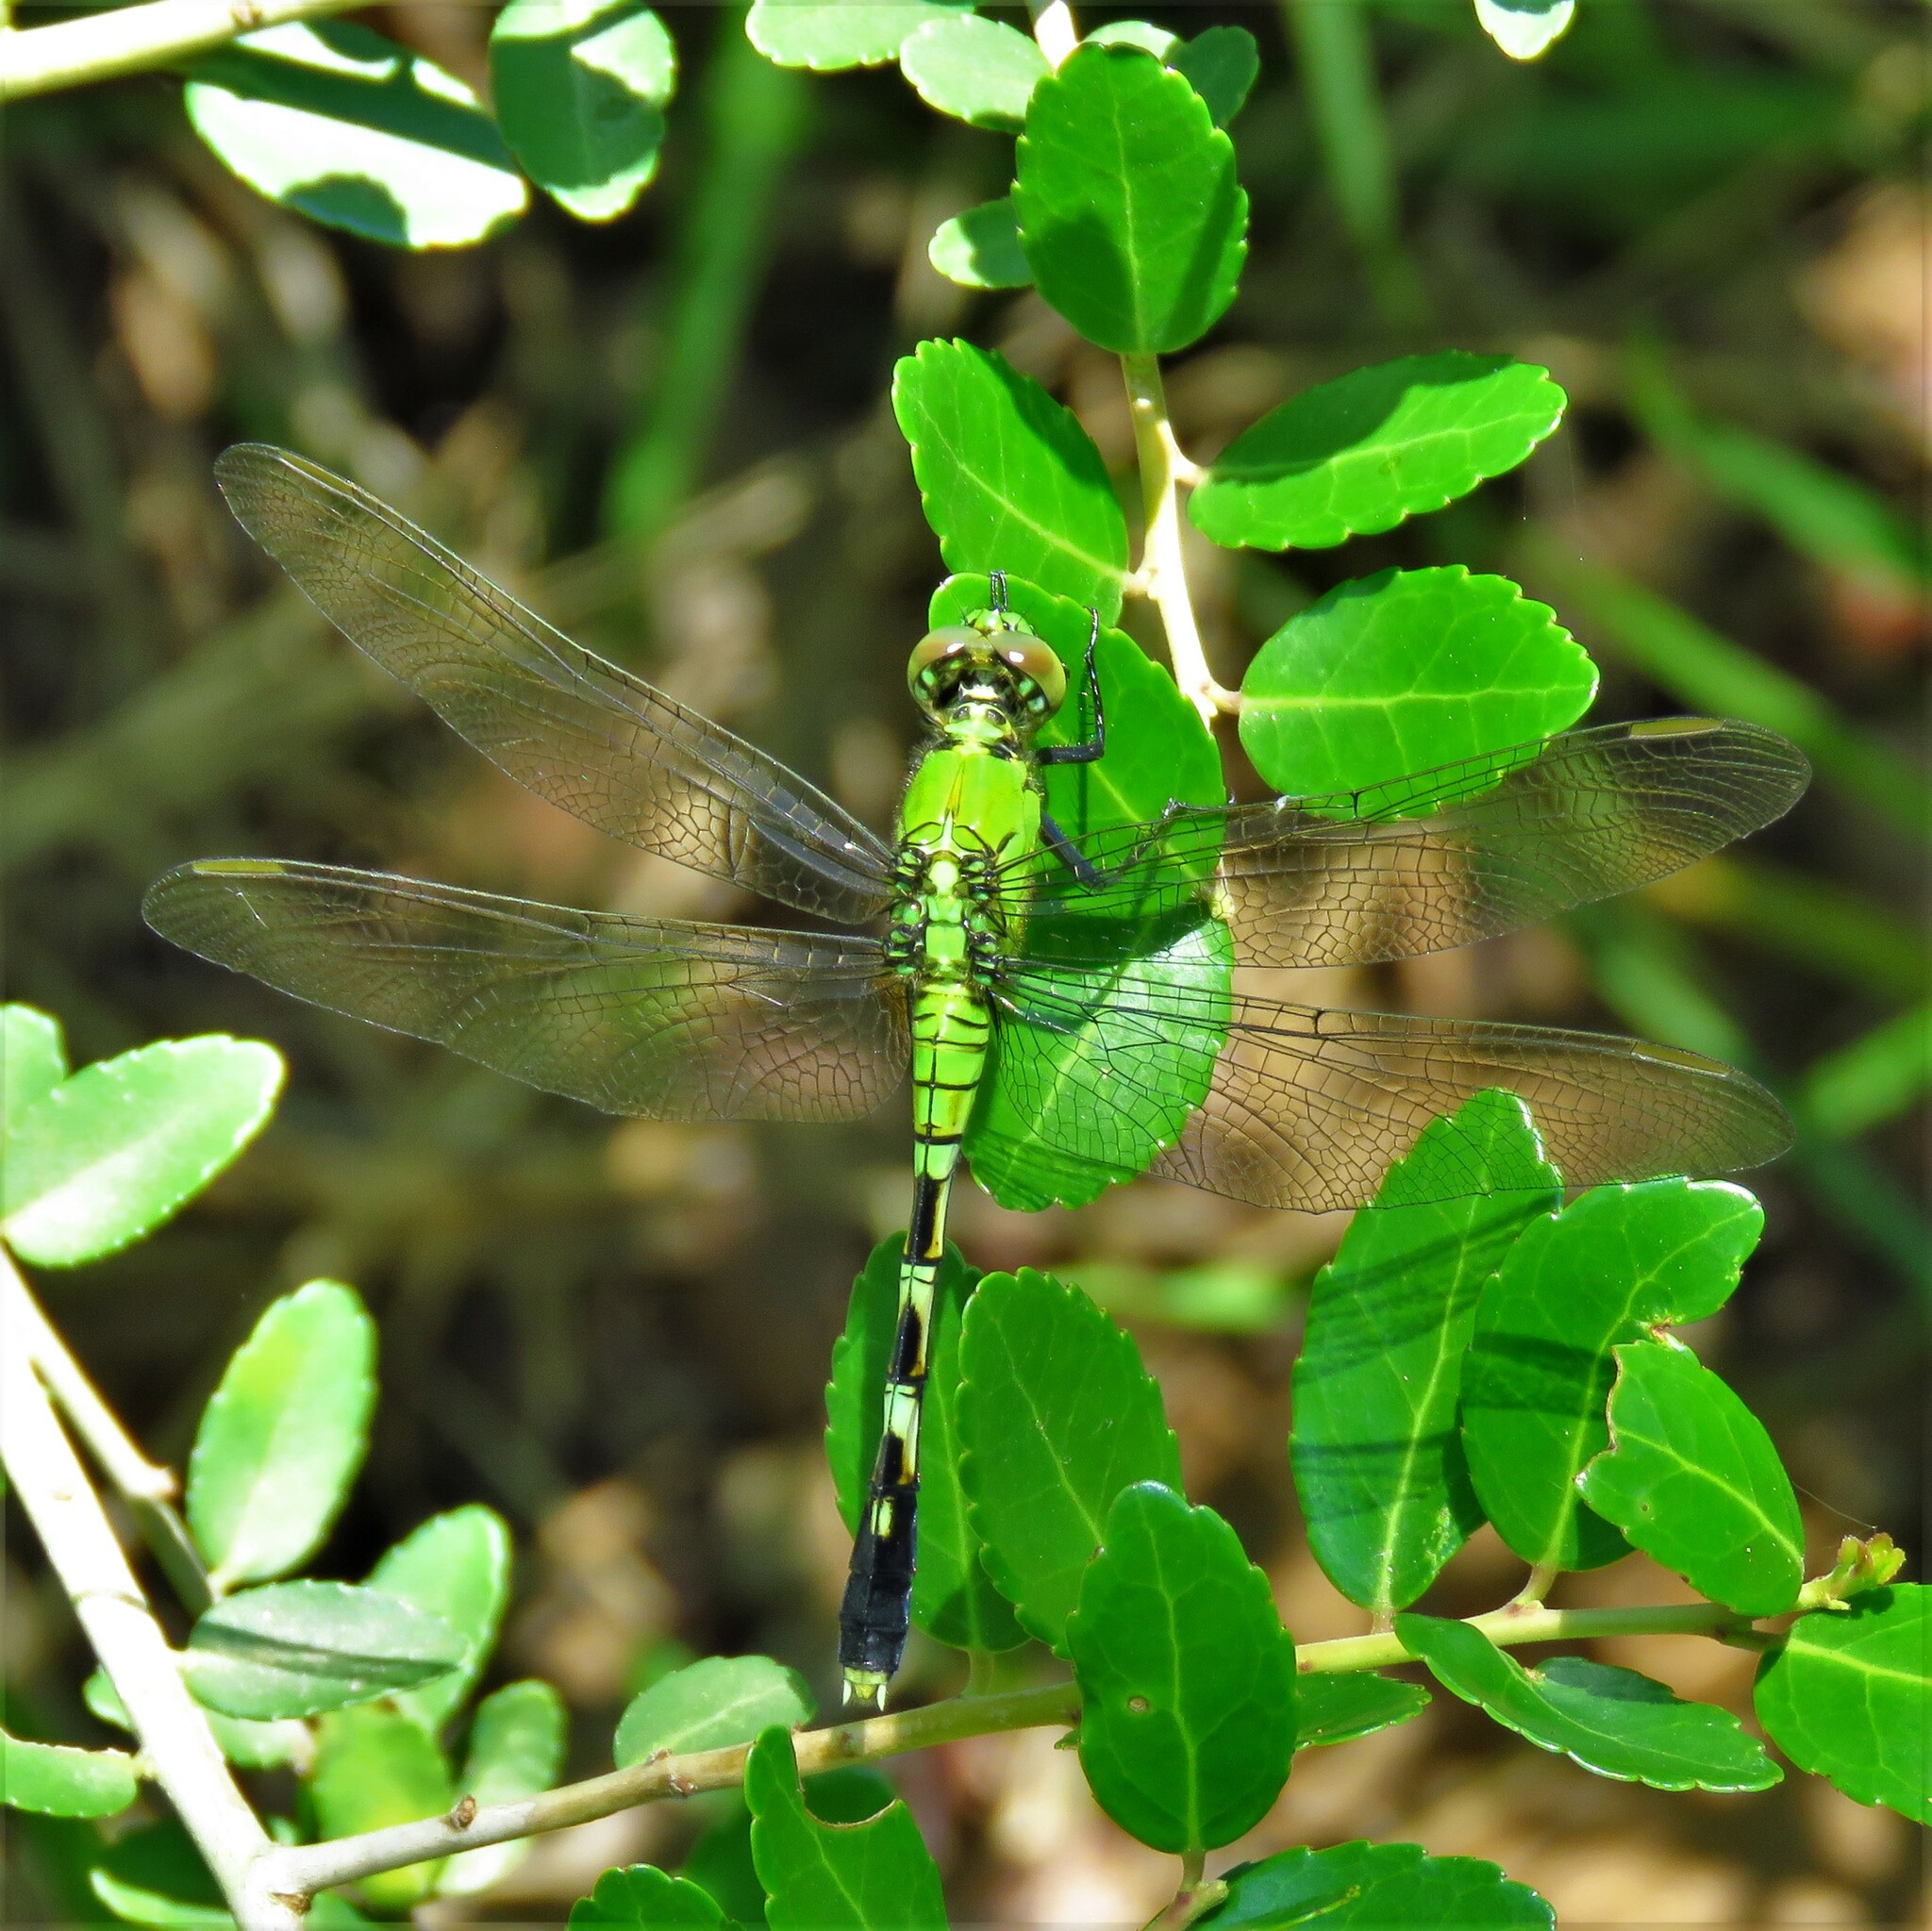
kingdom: Animalia
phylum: Arthropoda
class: Insecta
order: Odonata
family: Libellulidae
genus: Erythemis
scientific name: Erythemis simplicicollis
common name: Eastern pondhawk
